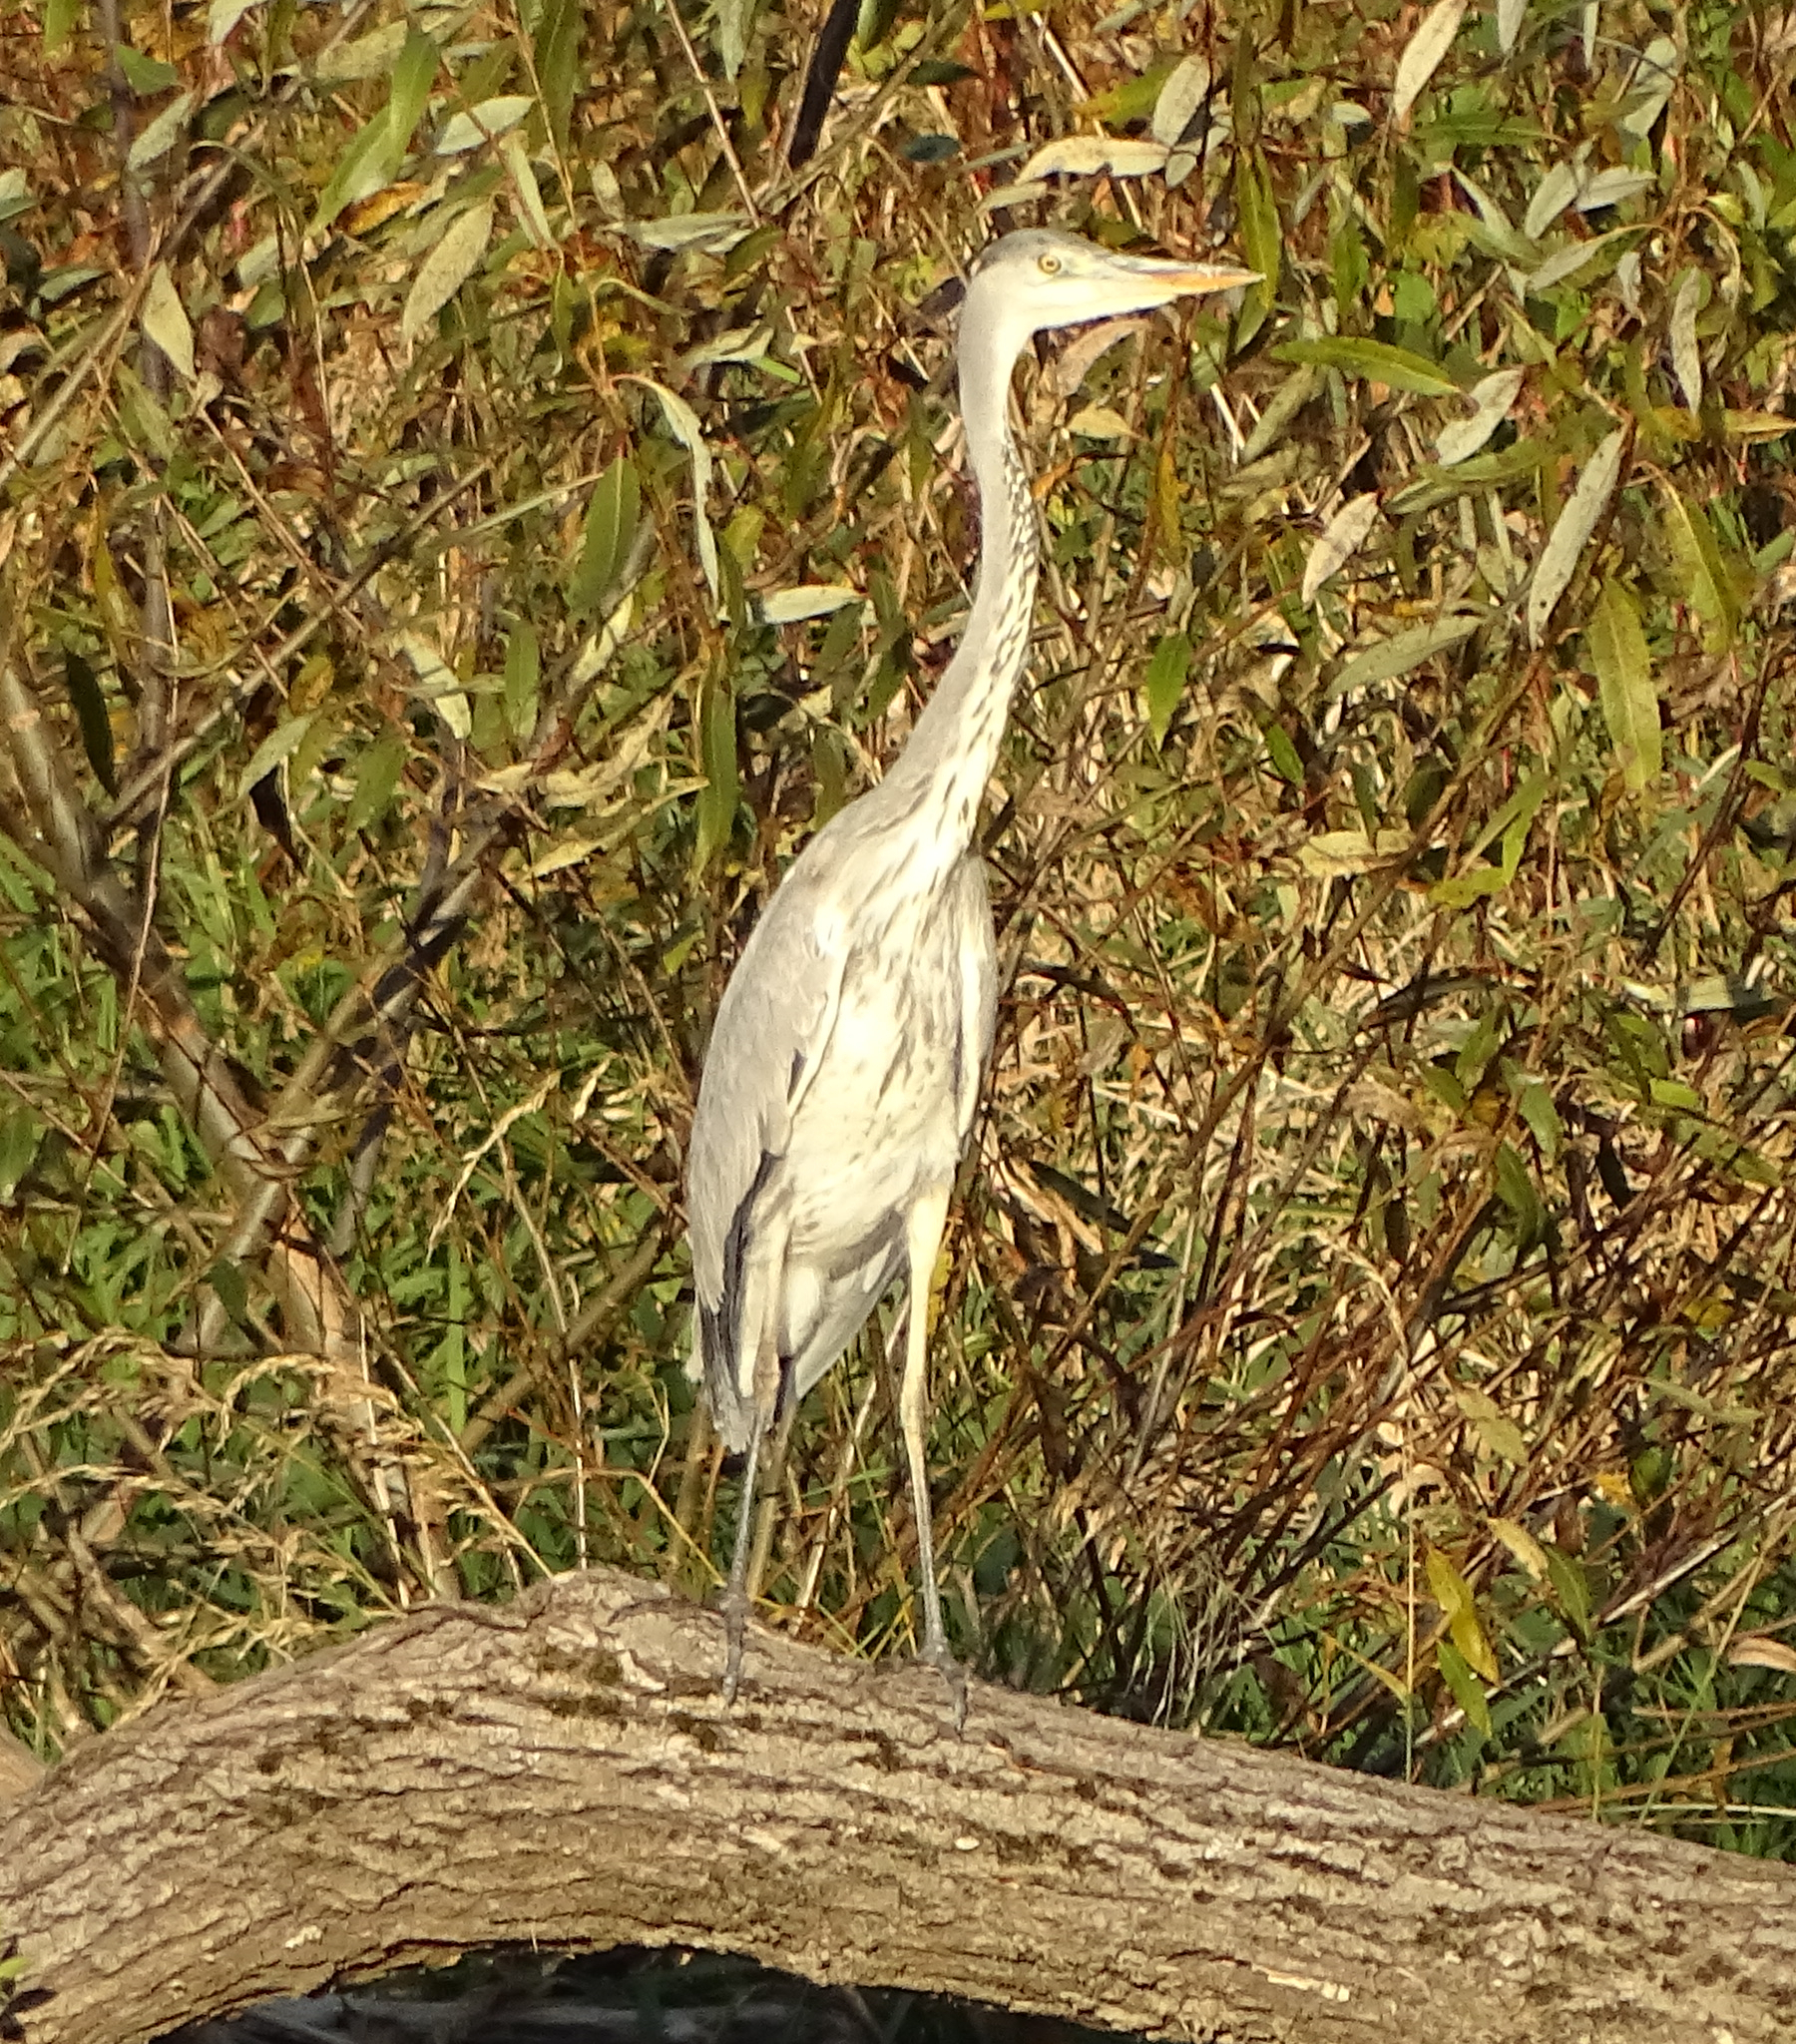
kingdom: Animalia
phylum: Chordata
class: Aves
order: Pelecaniformes
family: Ardeidae
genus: Ardea
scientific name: Ardea cinerea
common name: Grey heron
